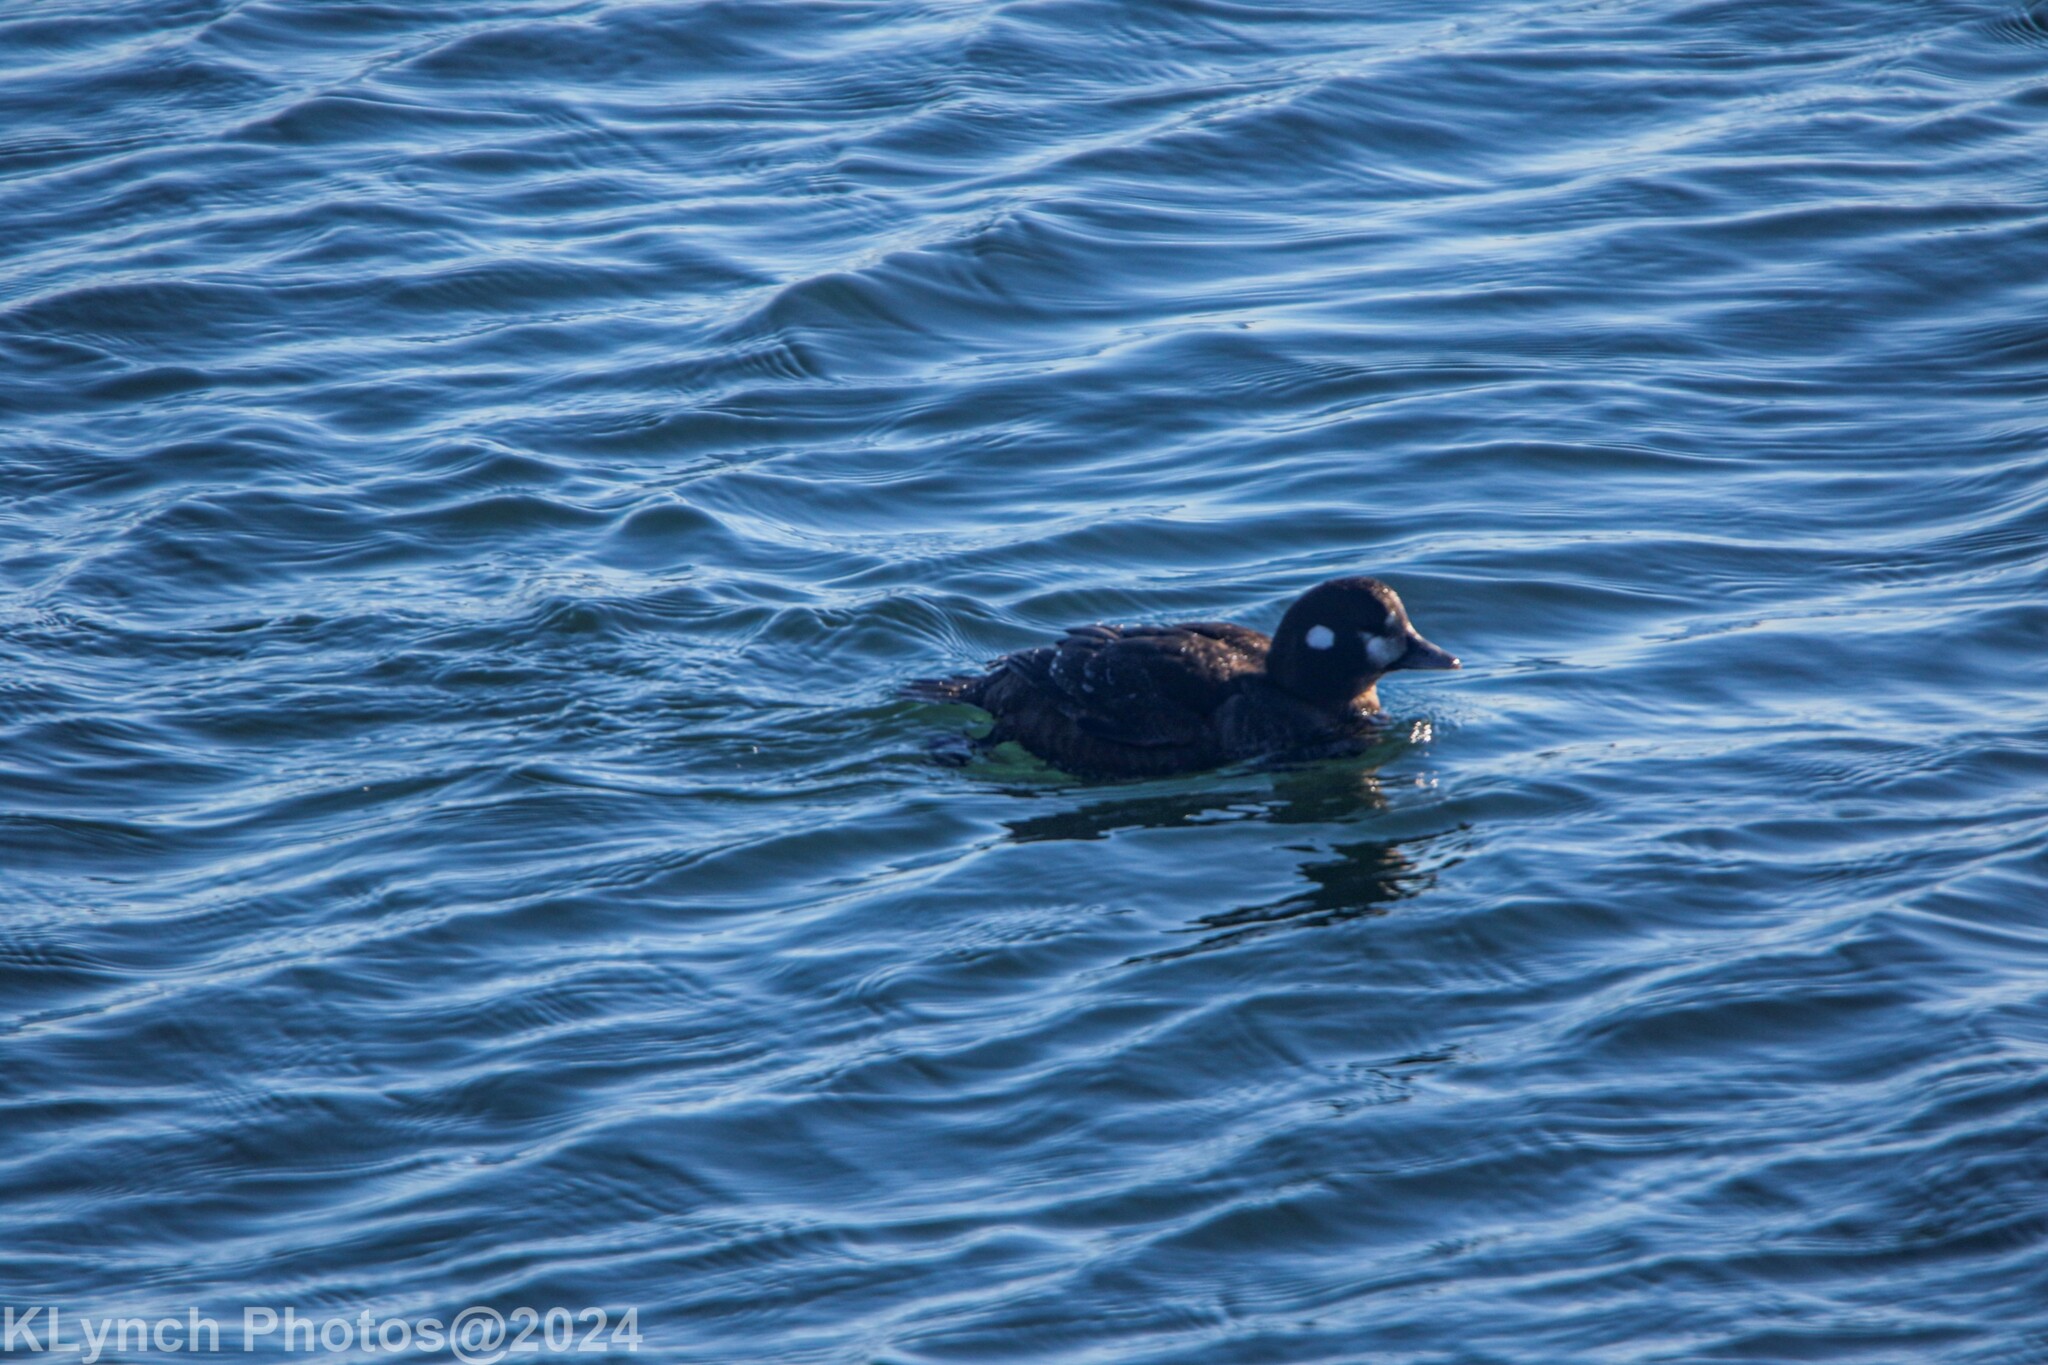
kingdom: Animalia
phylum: Chordata
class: Aves
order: Anseriformes
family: Anatidae
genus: Histrionicus
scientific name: Histrionicus histrionicus
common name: Harlequin duck
